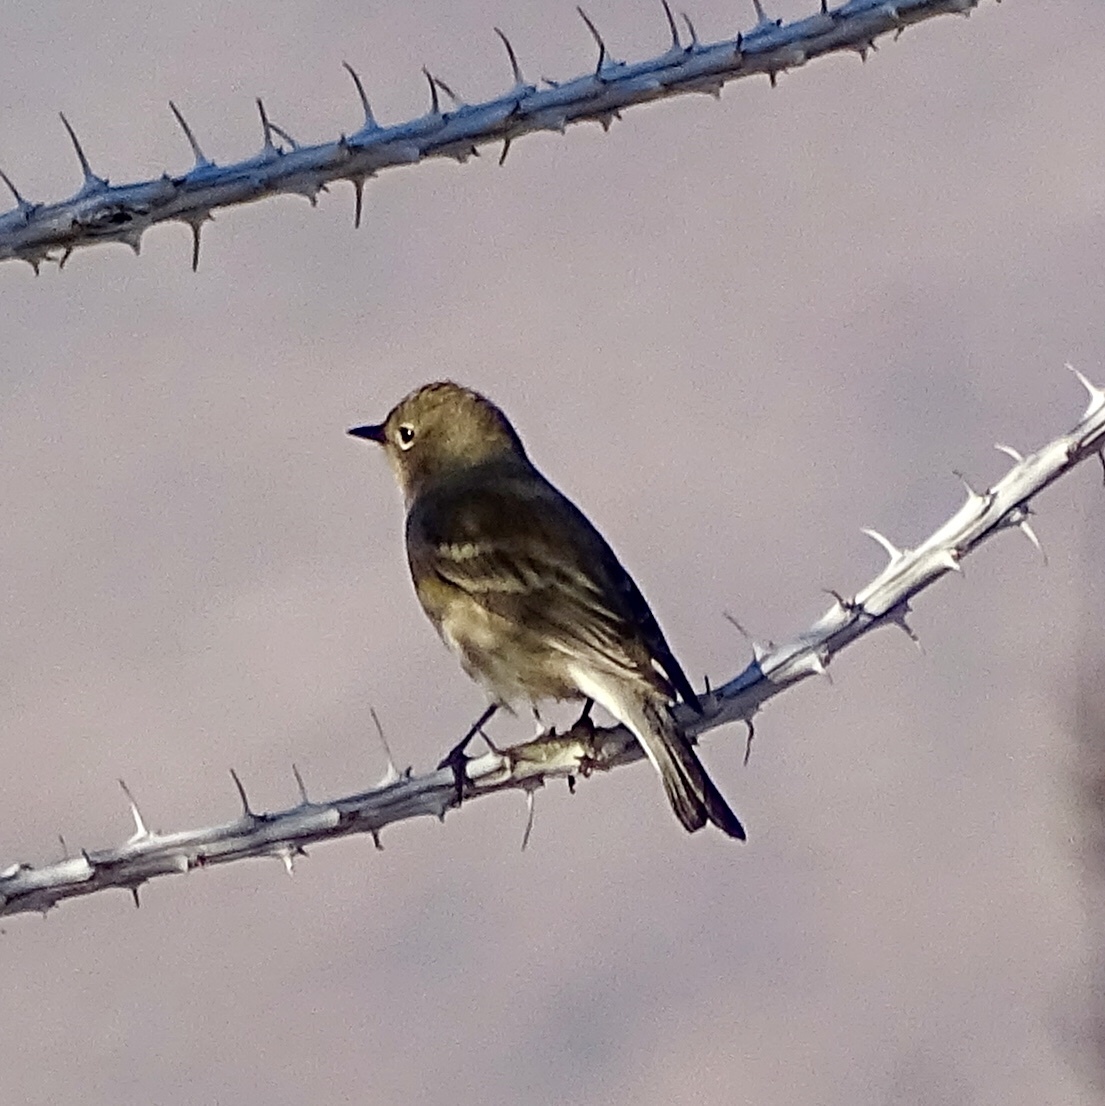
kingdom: Animalia
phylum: Chordata
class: Aves
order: Passeriformes
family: Parulidae
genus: Setophaga
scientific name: Setophaga coronata
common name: Myrtle warbler
